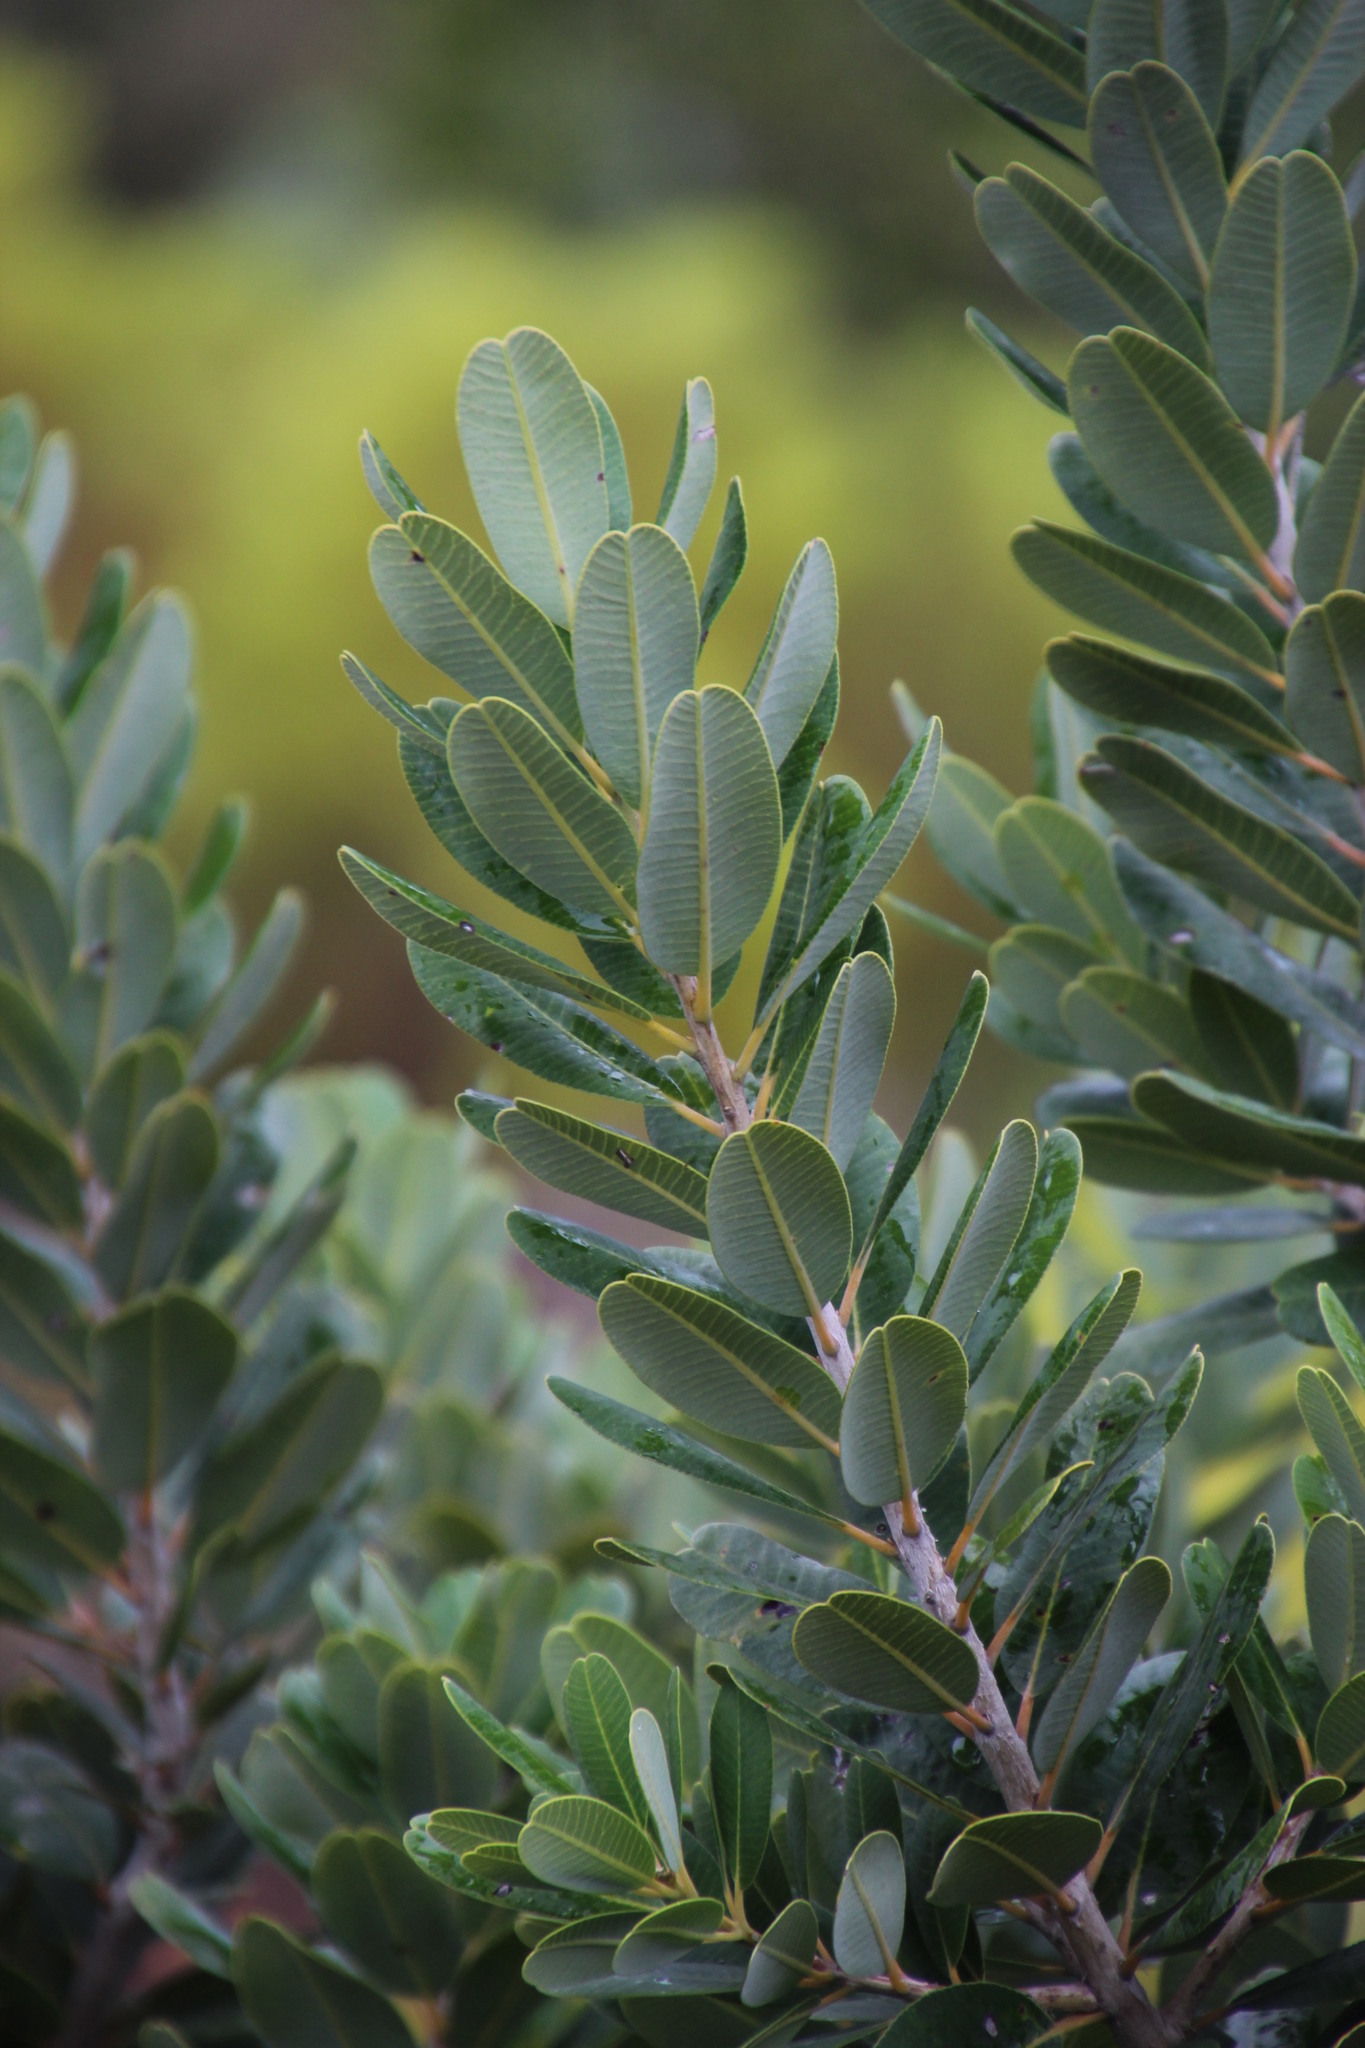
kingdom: Plantae
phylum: Tracheophyta
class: Magnoliopsida
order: Sapindales
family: Anacardiaceae
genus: Heeria
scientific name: Heeria argentea
